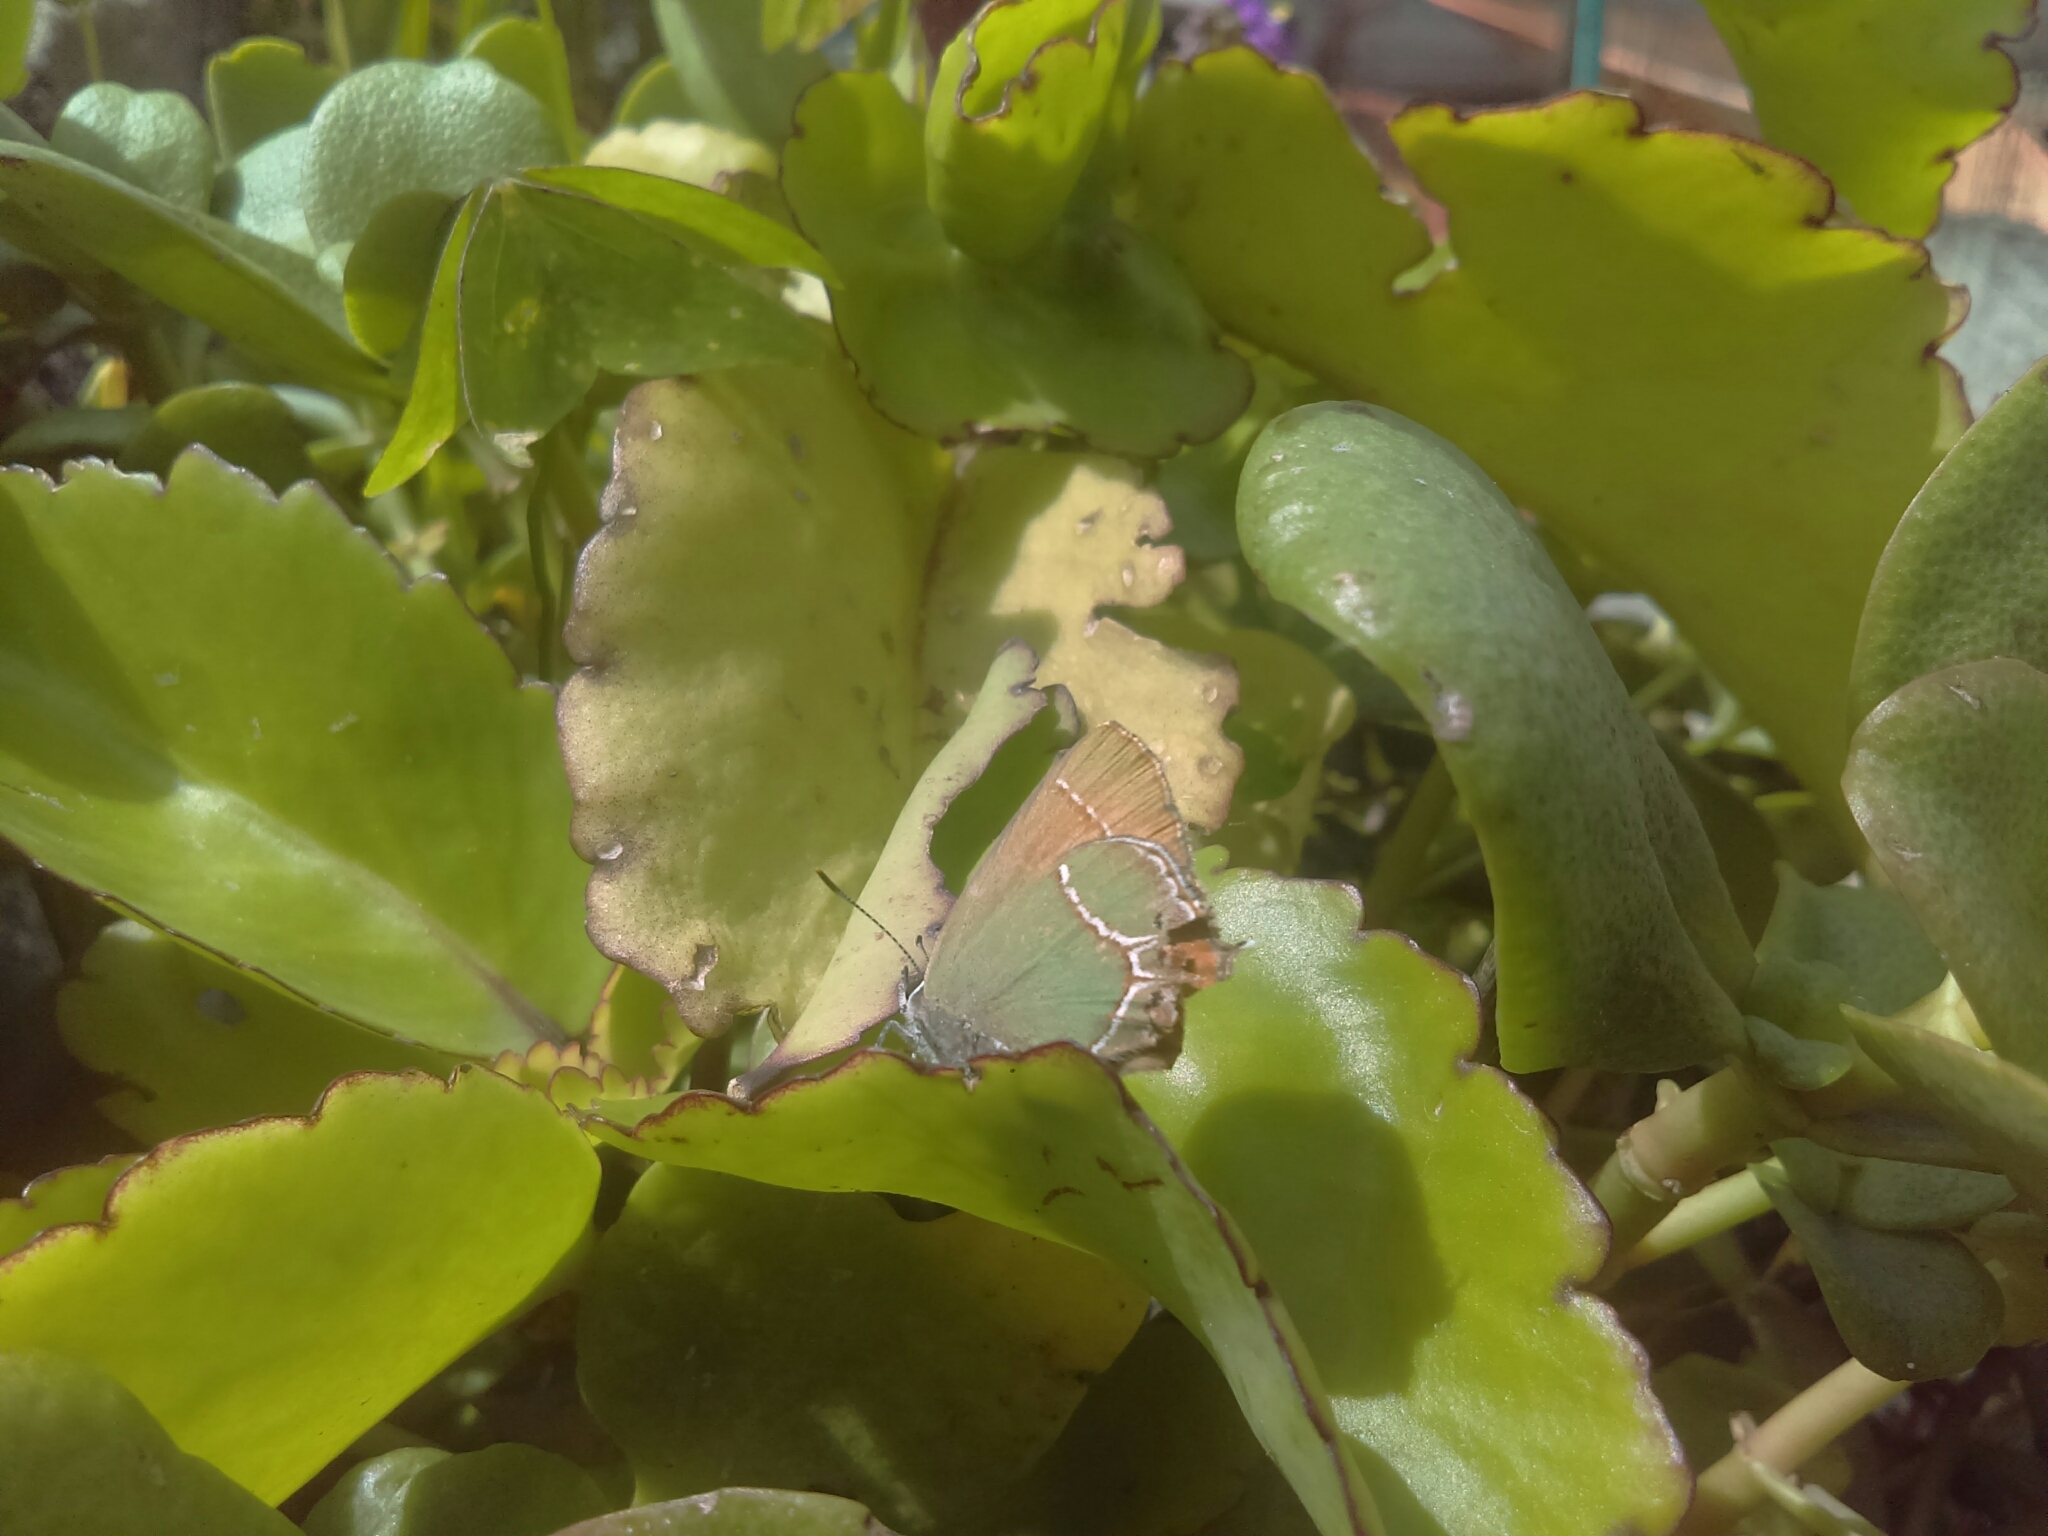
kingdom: Animalia
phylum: Arthropoda
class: Insecta
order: Lepidoptera
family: Lycaenidae
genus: Xamia
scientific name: Xamia xami
